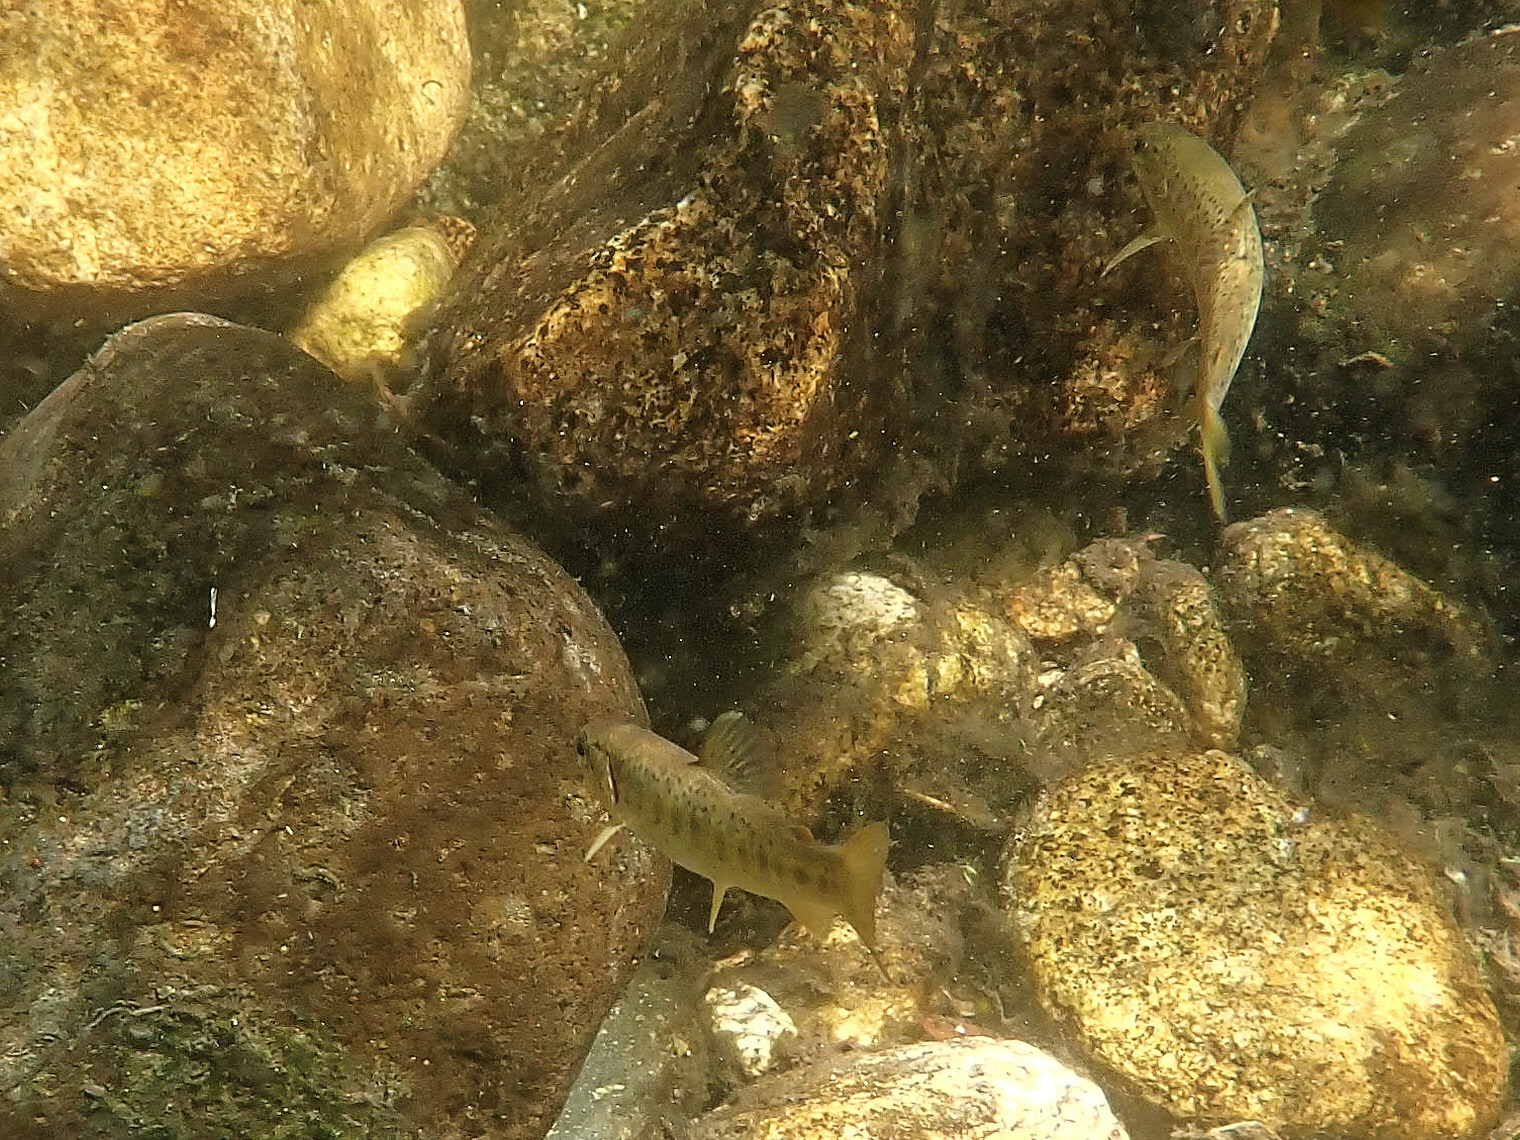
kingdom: Animalia
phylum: Chordata
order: Salmoniformes
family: Salmonidae
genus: Salmo
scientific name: Salmo trutta
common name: Brown trout
